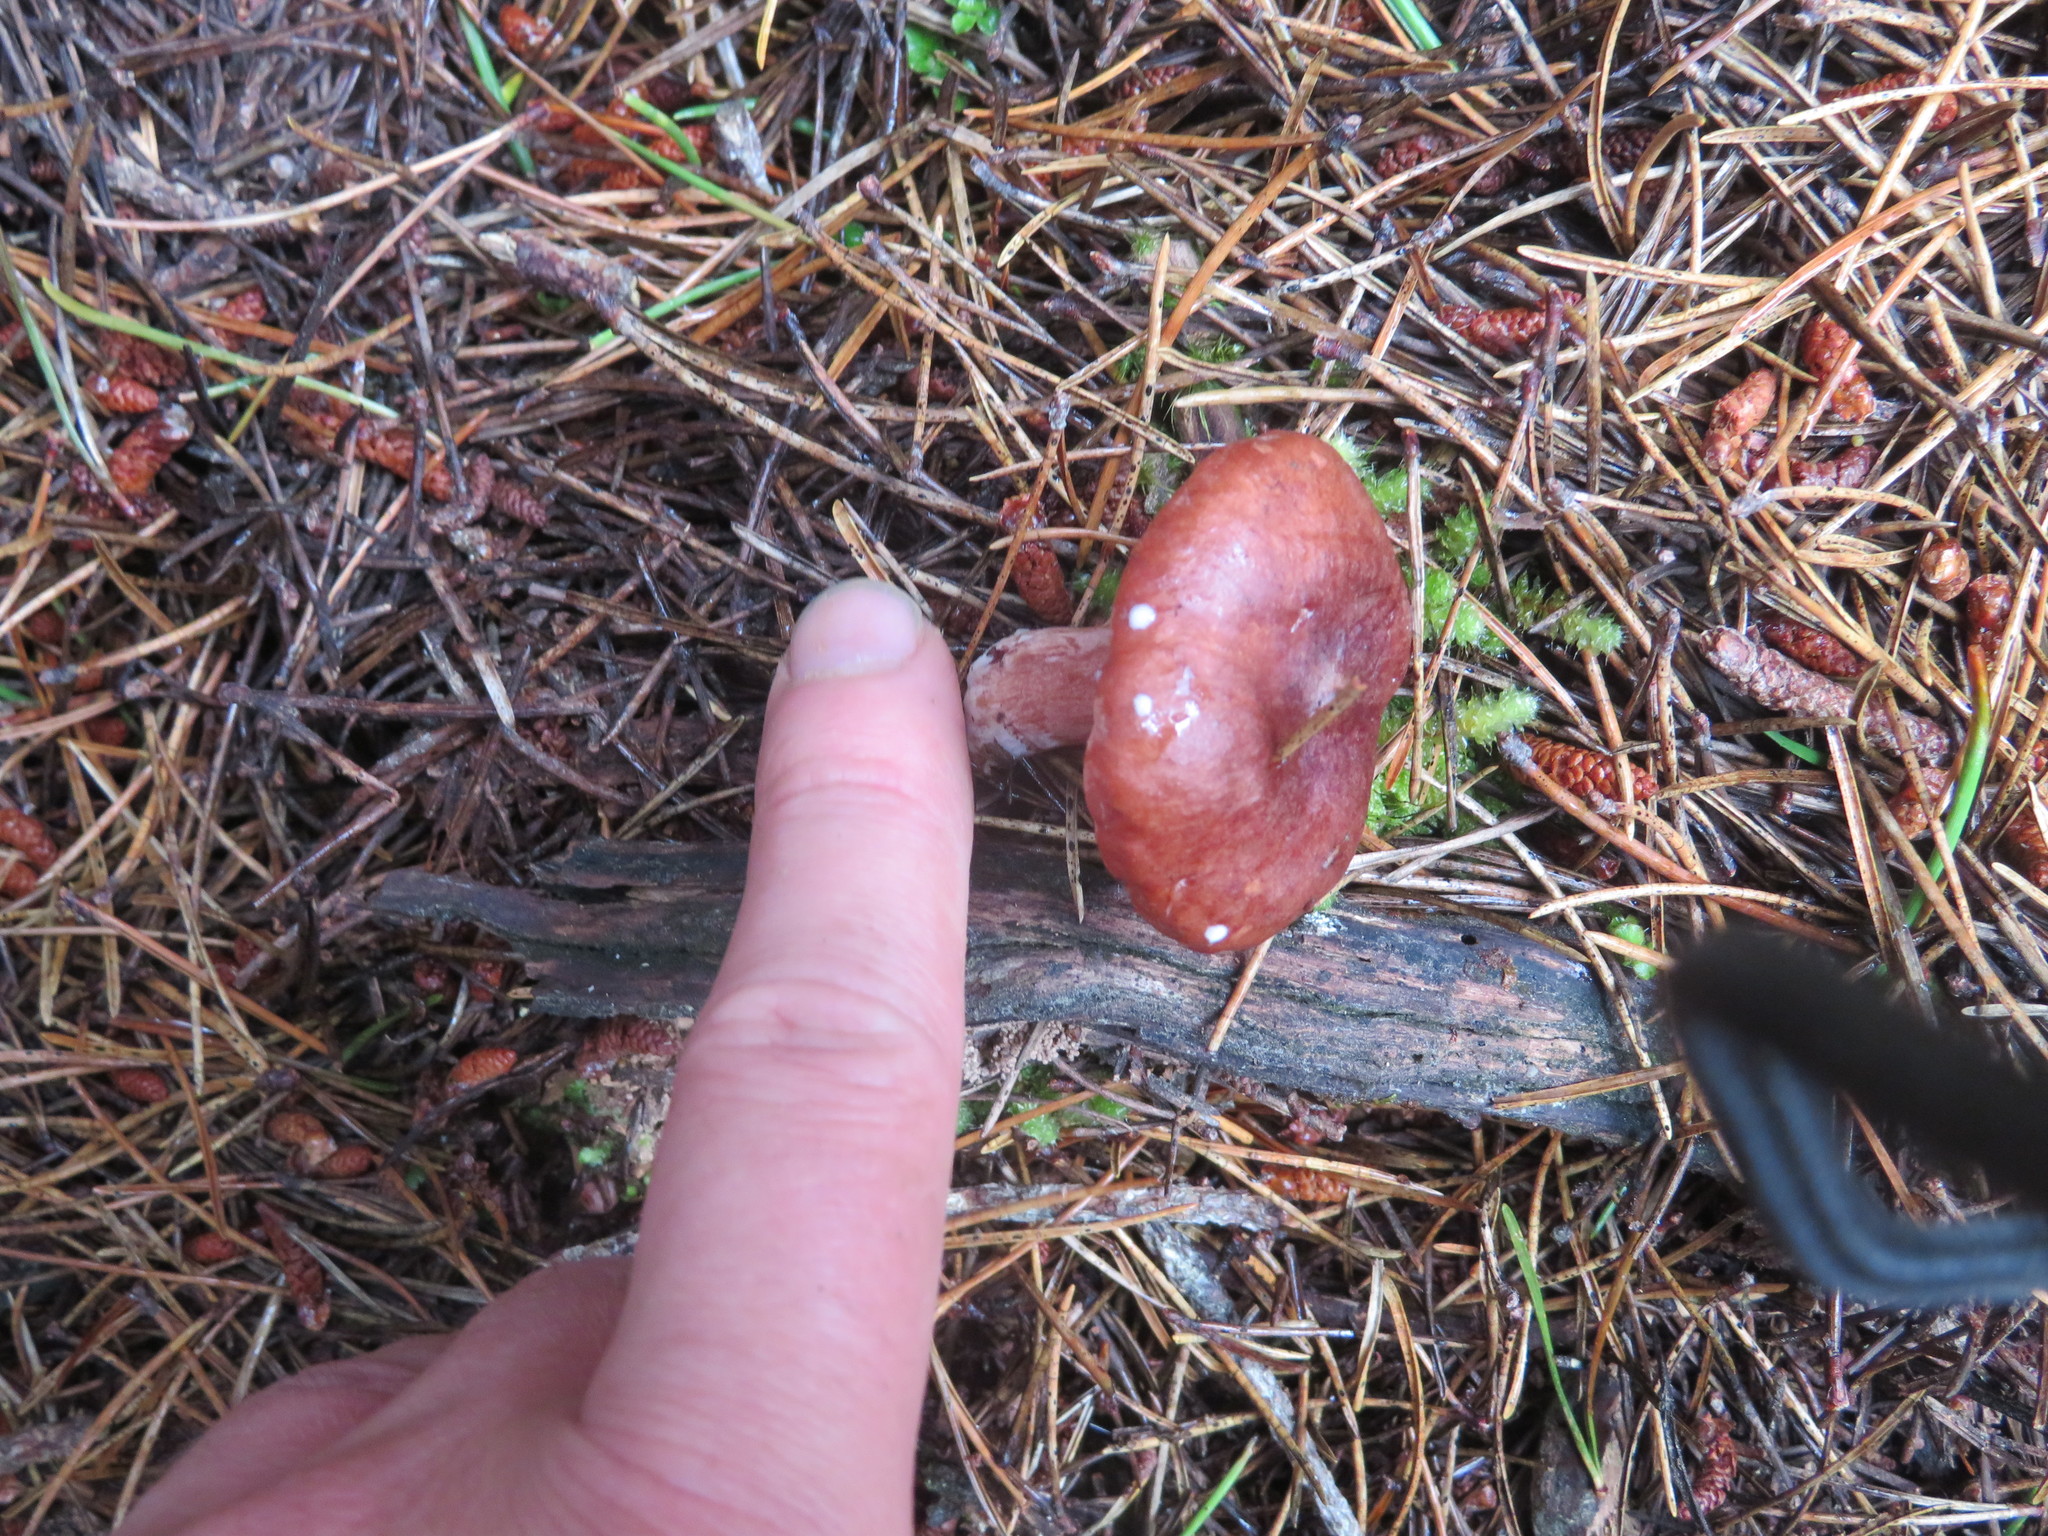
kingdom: Fungi
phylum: Basidiomycota
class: Agaricomycetes
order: Russulales
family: Russulaceae
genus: Lactarius
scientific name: Lactarius rufus
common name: Rufous milk-cap
